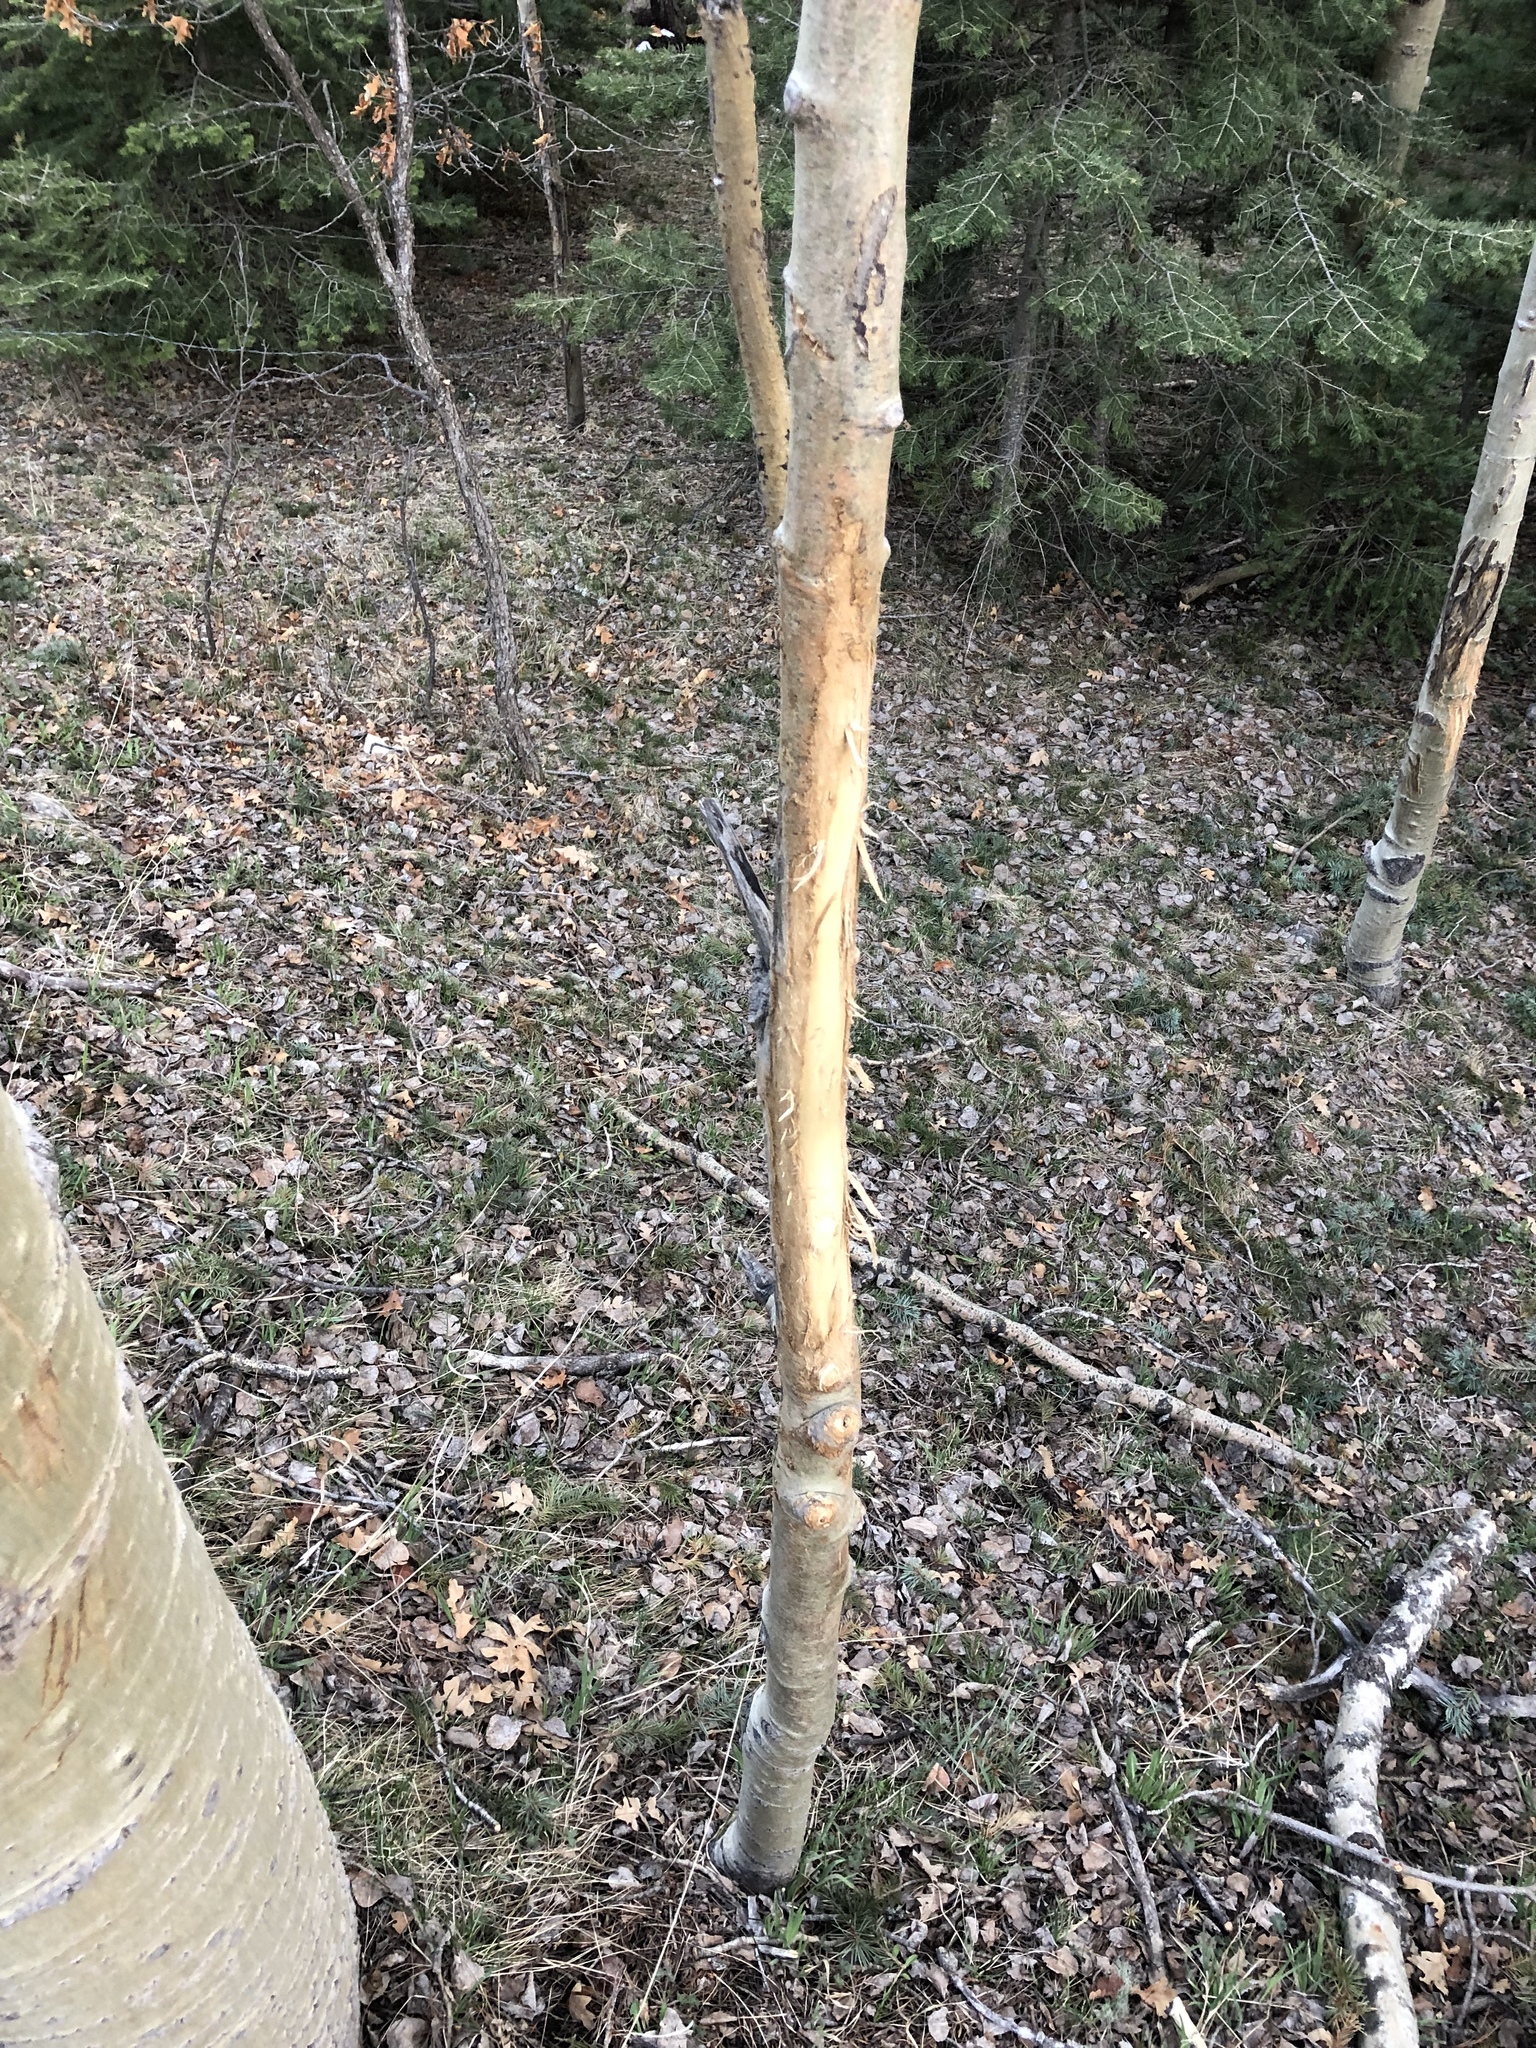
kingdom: Animalia
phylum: Chordata
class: Mammalia
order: Artiodactyla
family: Cervidae
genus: Odocoileus
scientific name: Odocoileus hemionus
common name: Mule deer
